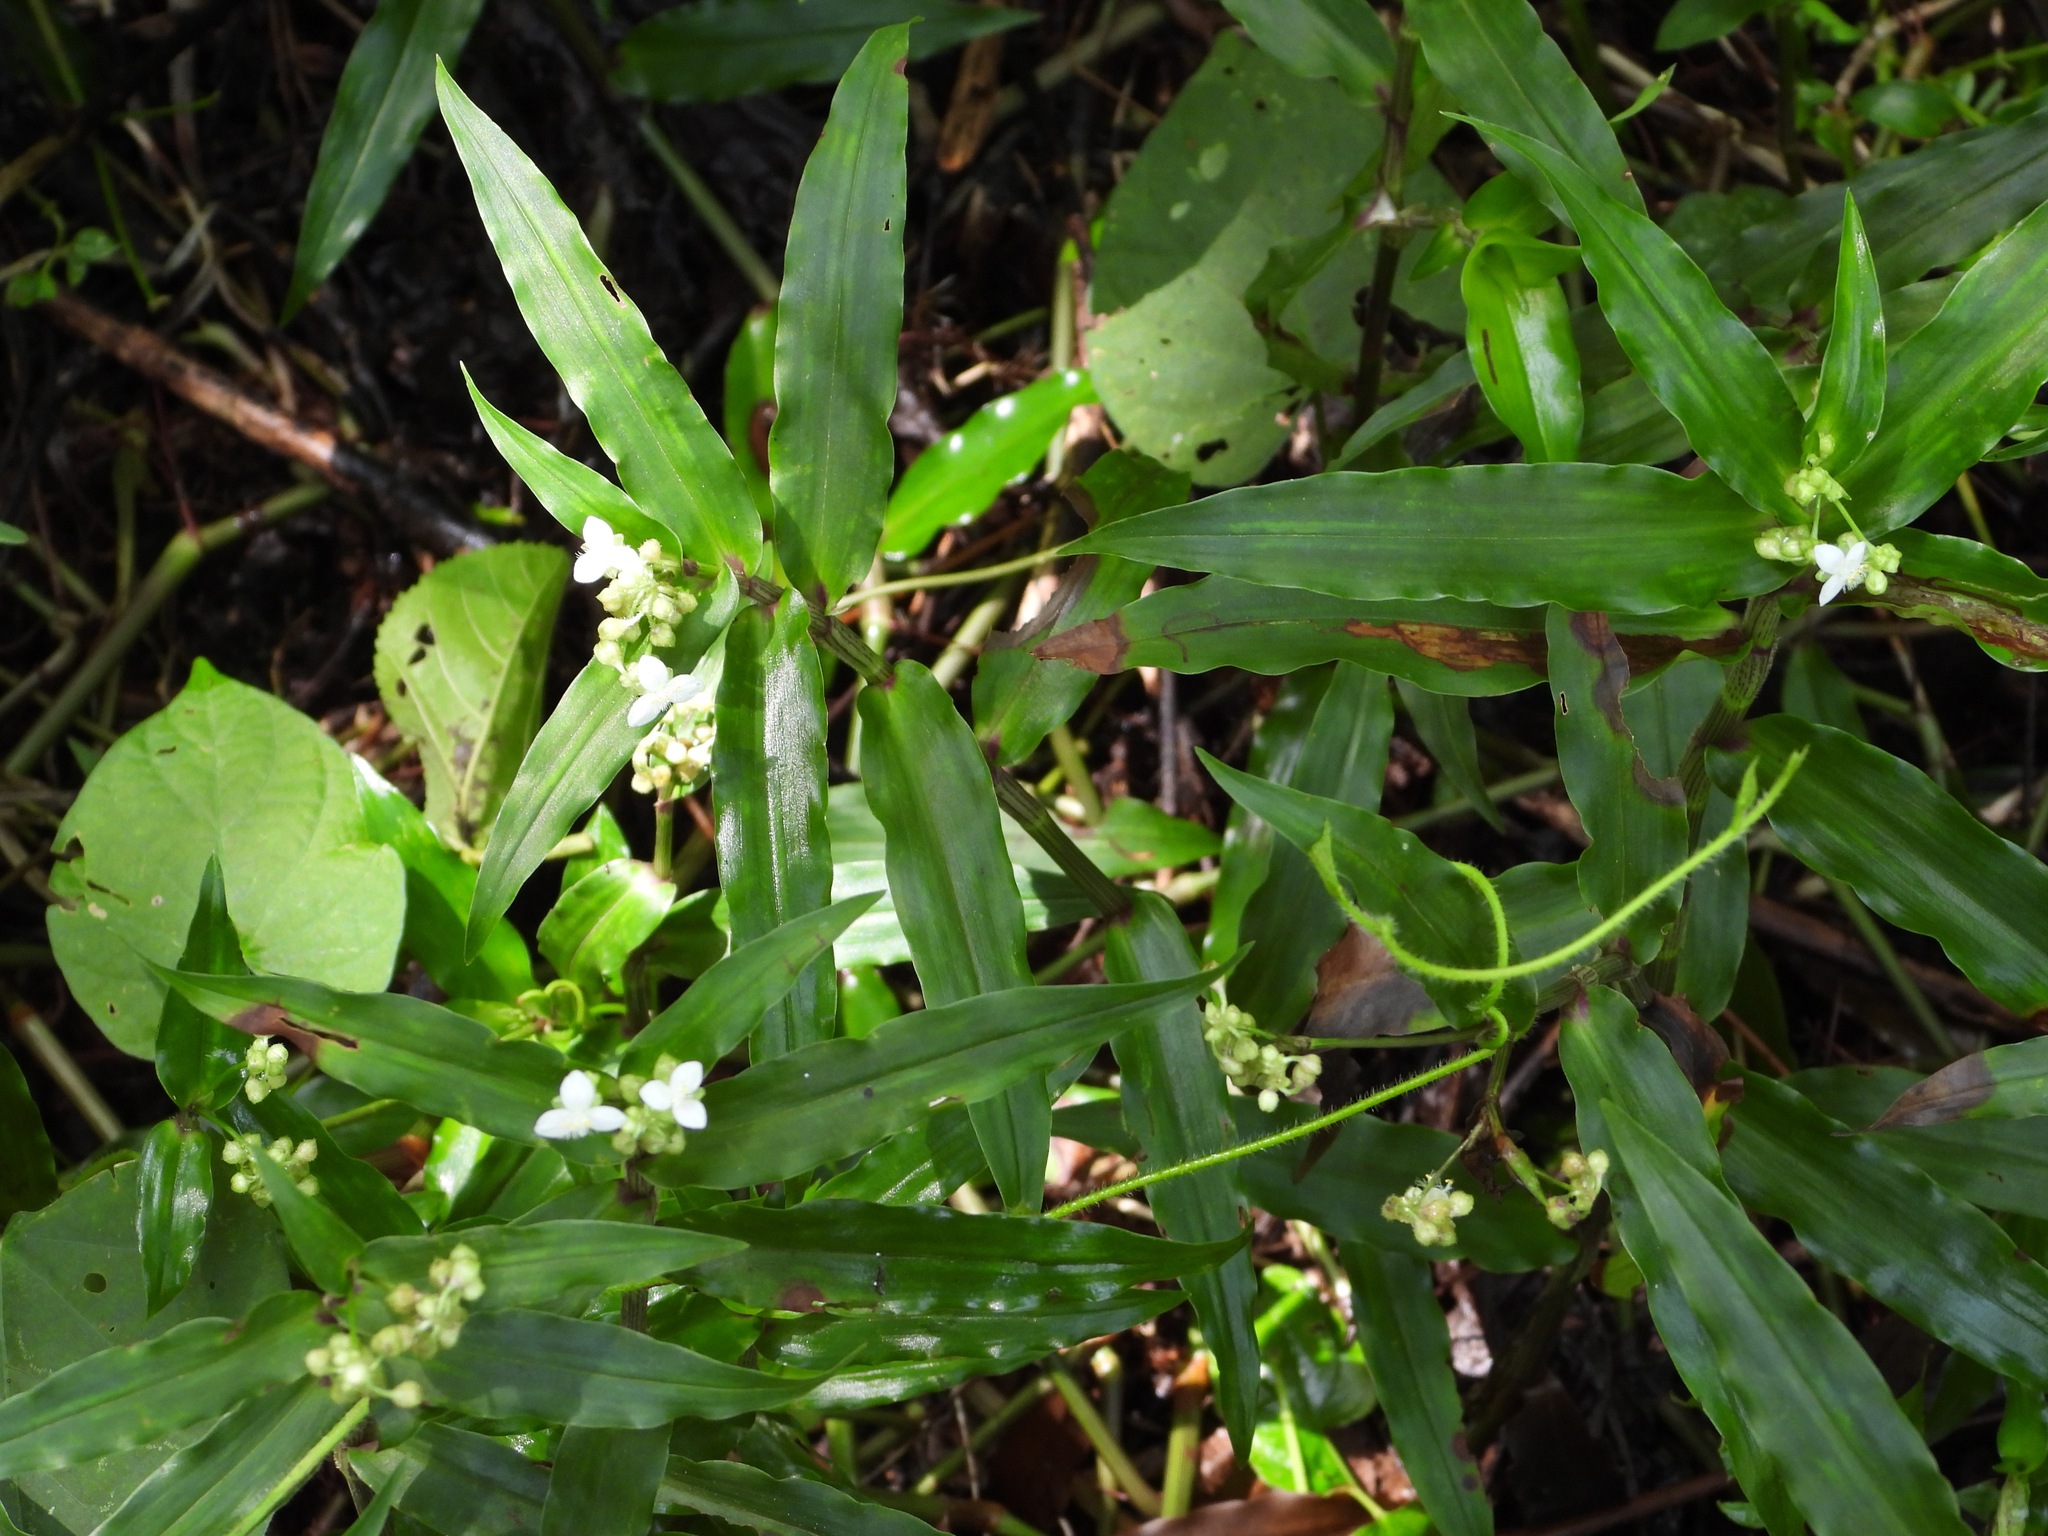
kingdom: Plantae
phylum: Tracheophyta
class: Liliopsida
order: Commelinales
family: Commelinaceae
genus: Callisia
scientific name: Callisia serrulata
